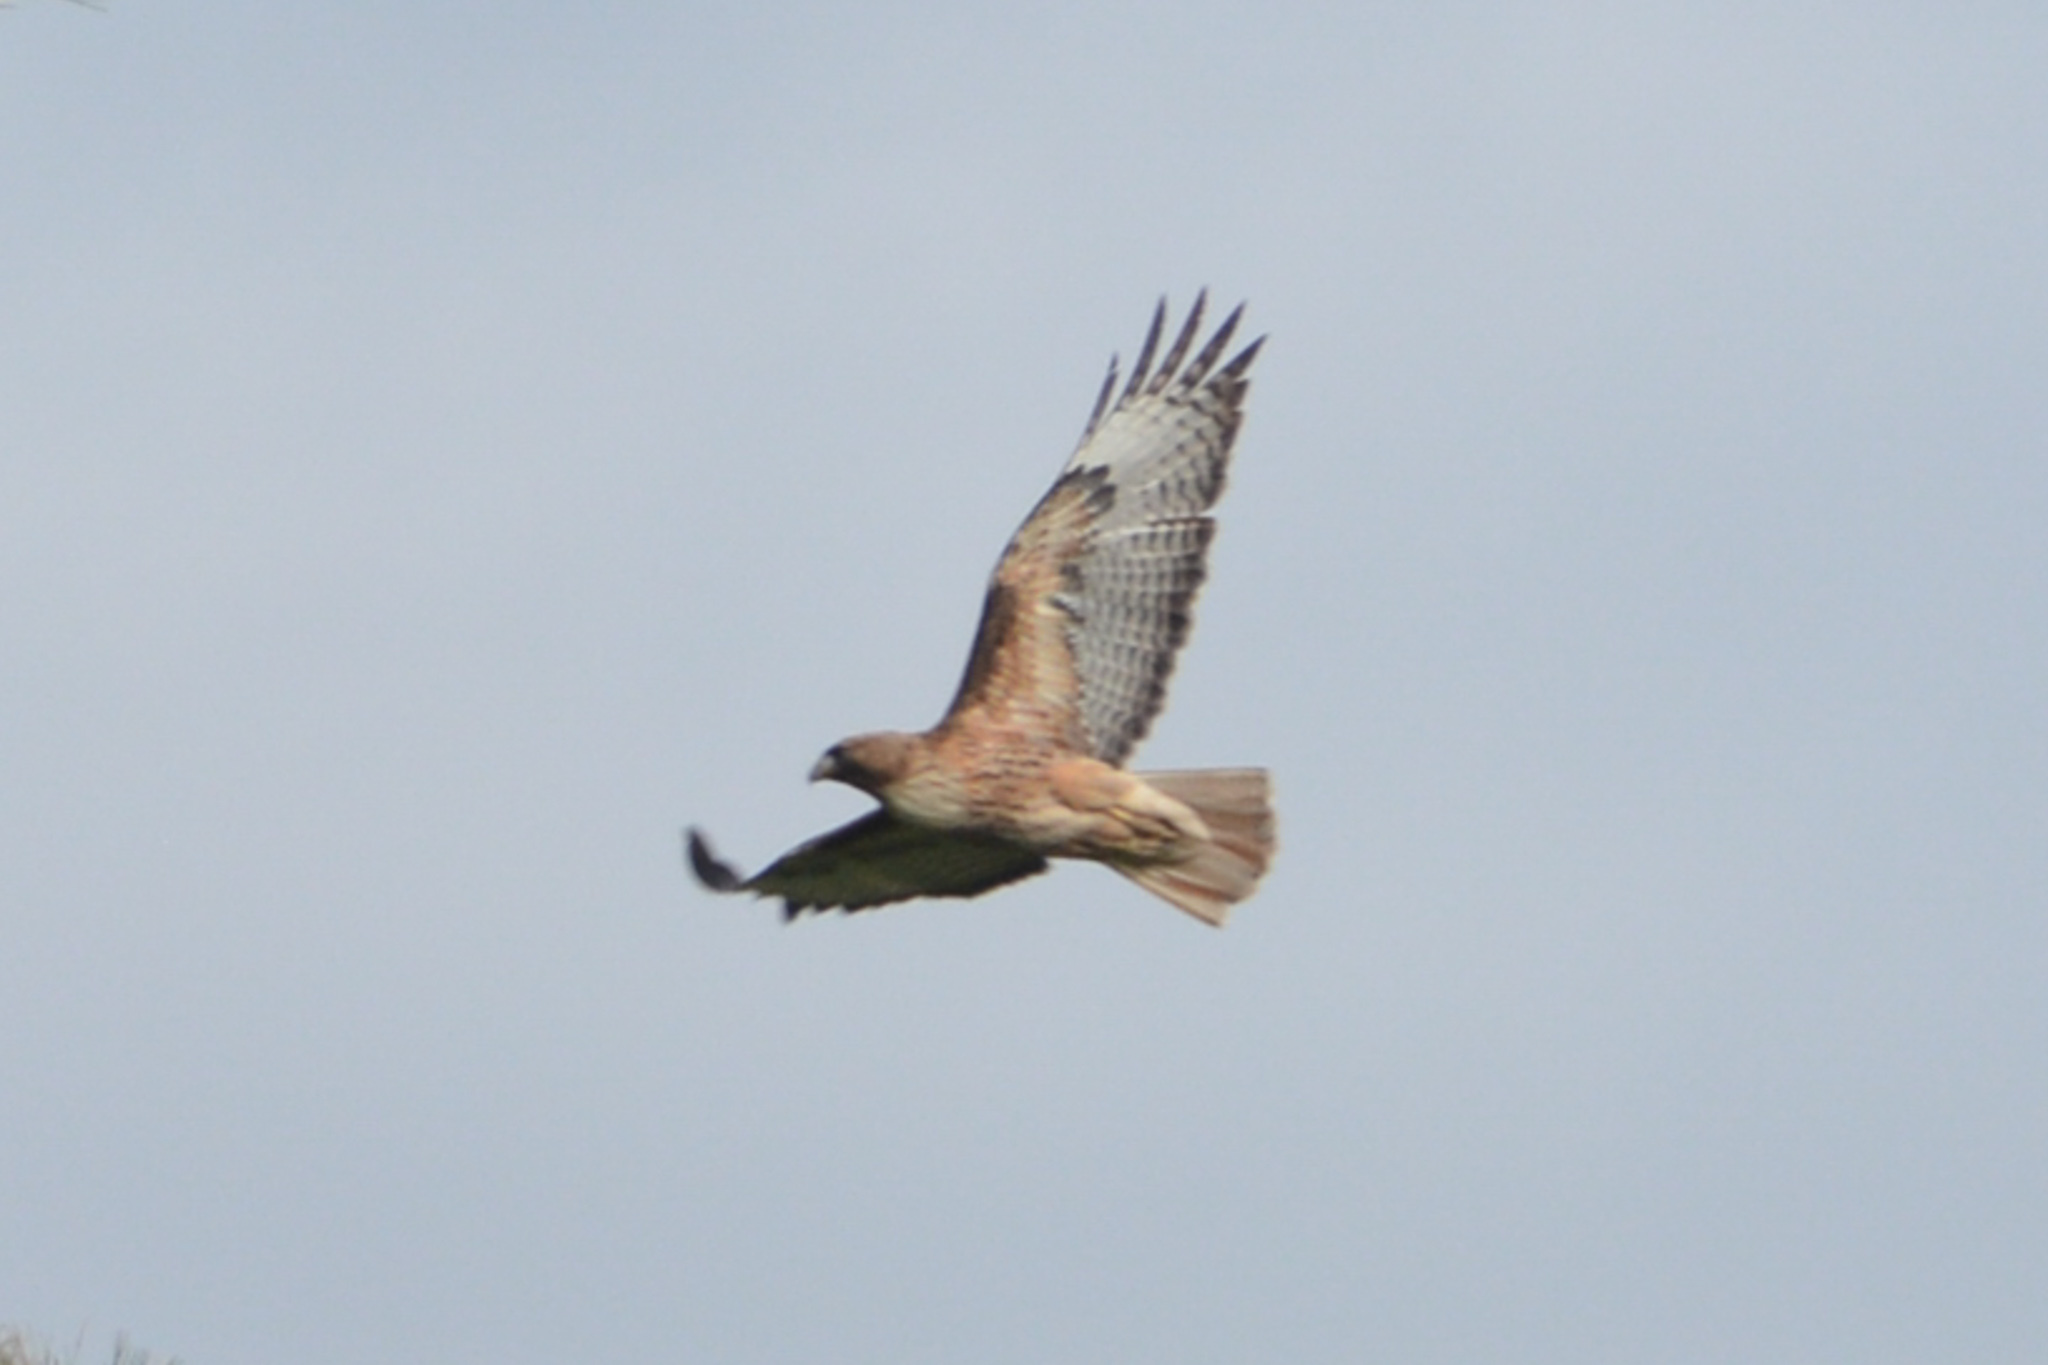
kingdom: Animalia
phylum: Chordata
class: Aves
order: Accipitriformes
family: Accipitridae
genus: Buteo
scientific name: Buteo jamaicensis
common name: Red-tailed hawk
